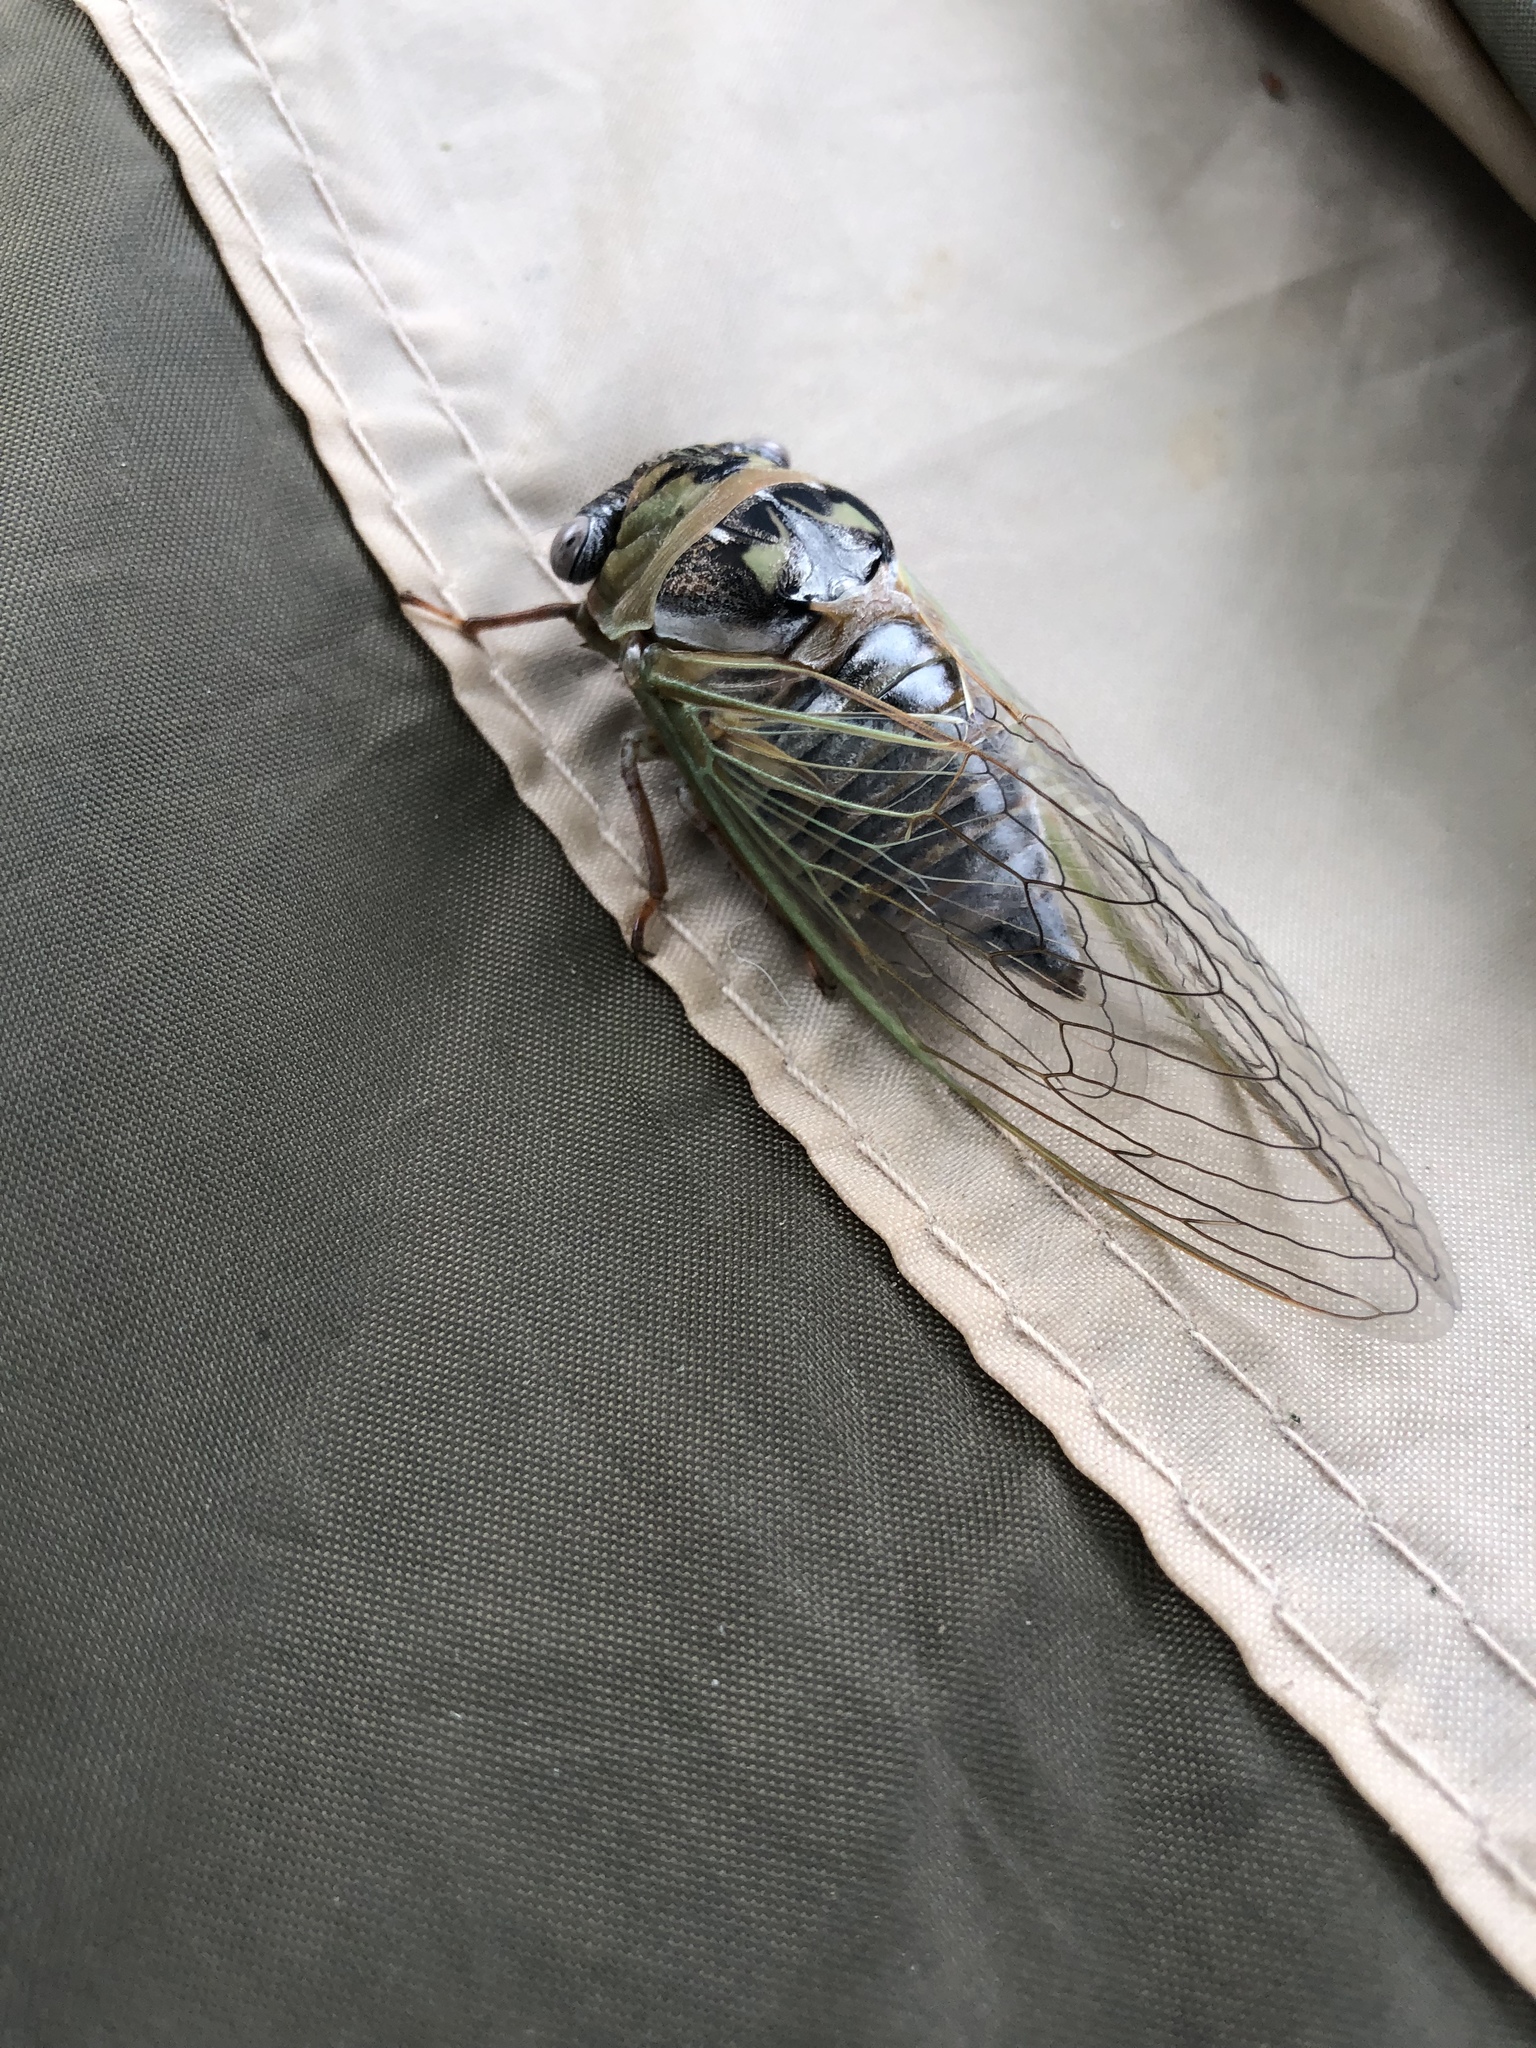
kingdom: Animalia
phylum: Arthropoda
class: Insecta
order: Hemiptera
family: Cicadidae
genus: Megatibicen
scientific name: Megatibicen dealbatus
